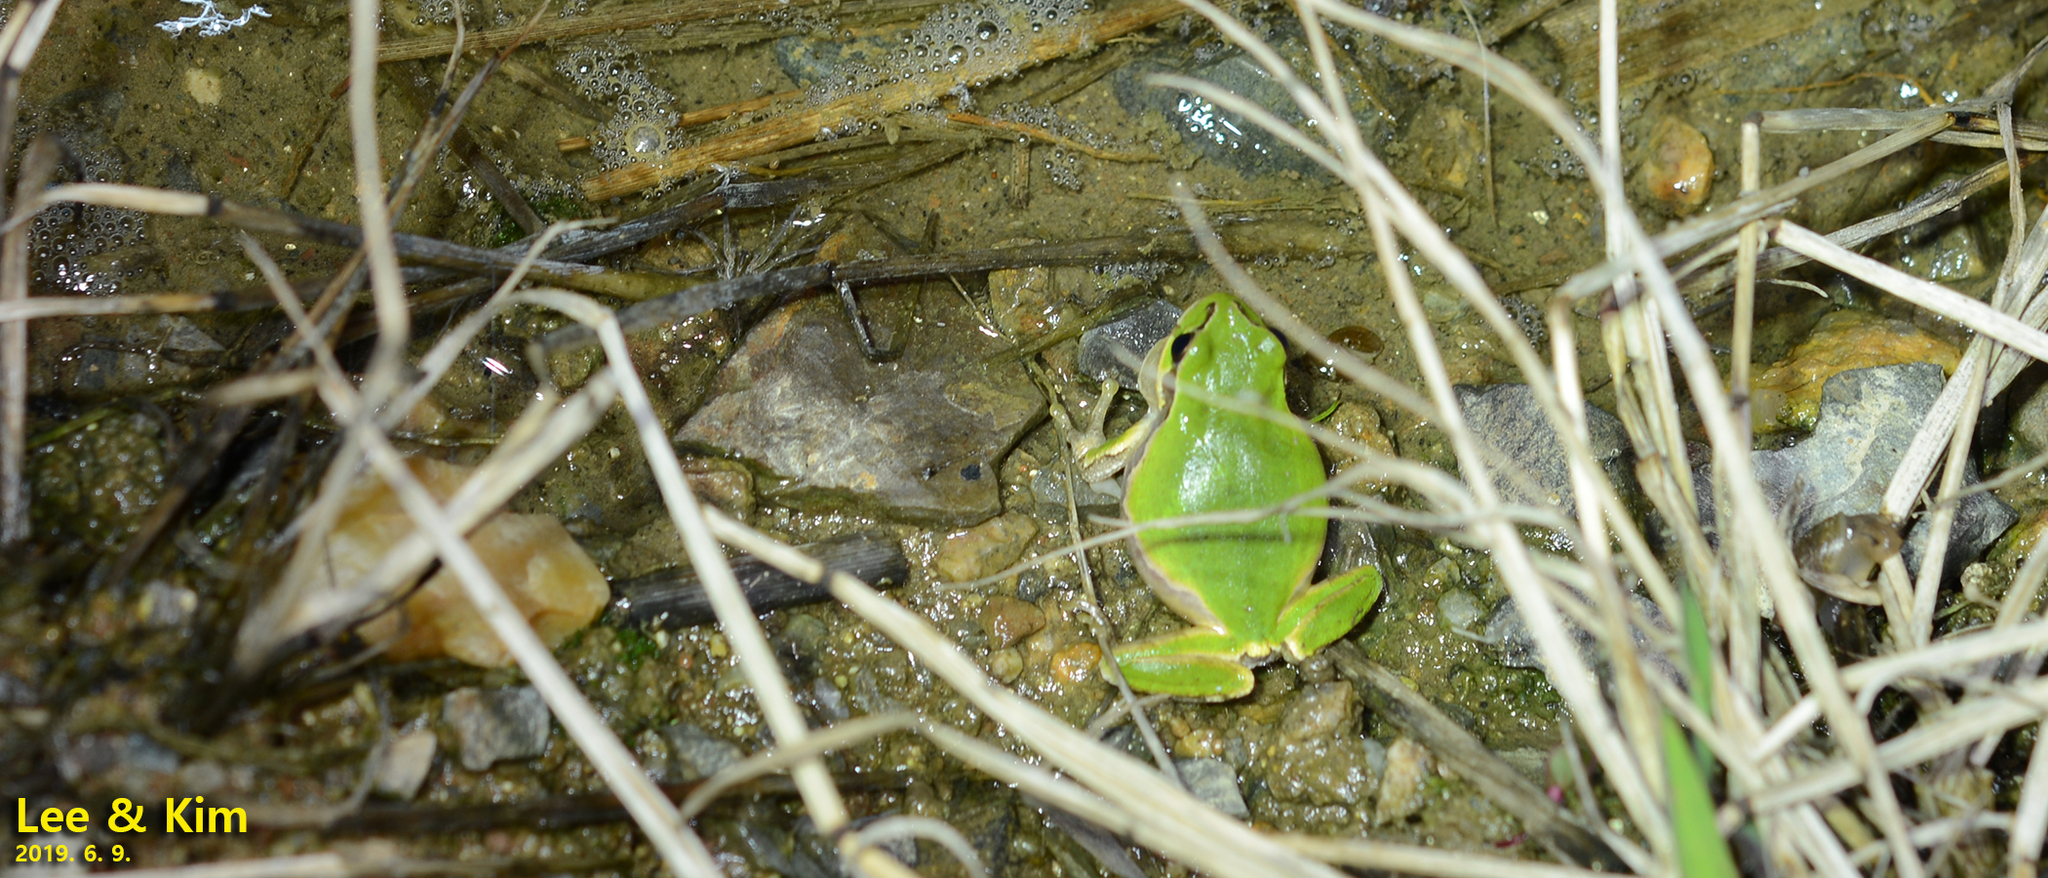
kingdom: Animalia
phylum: Chordata
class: Amphibia
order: Anura
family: Hylidae
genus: Dryophytes
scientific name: Dryophytes japonicus
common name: Japanese treefrog
